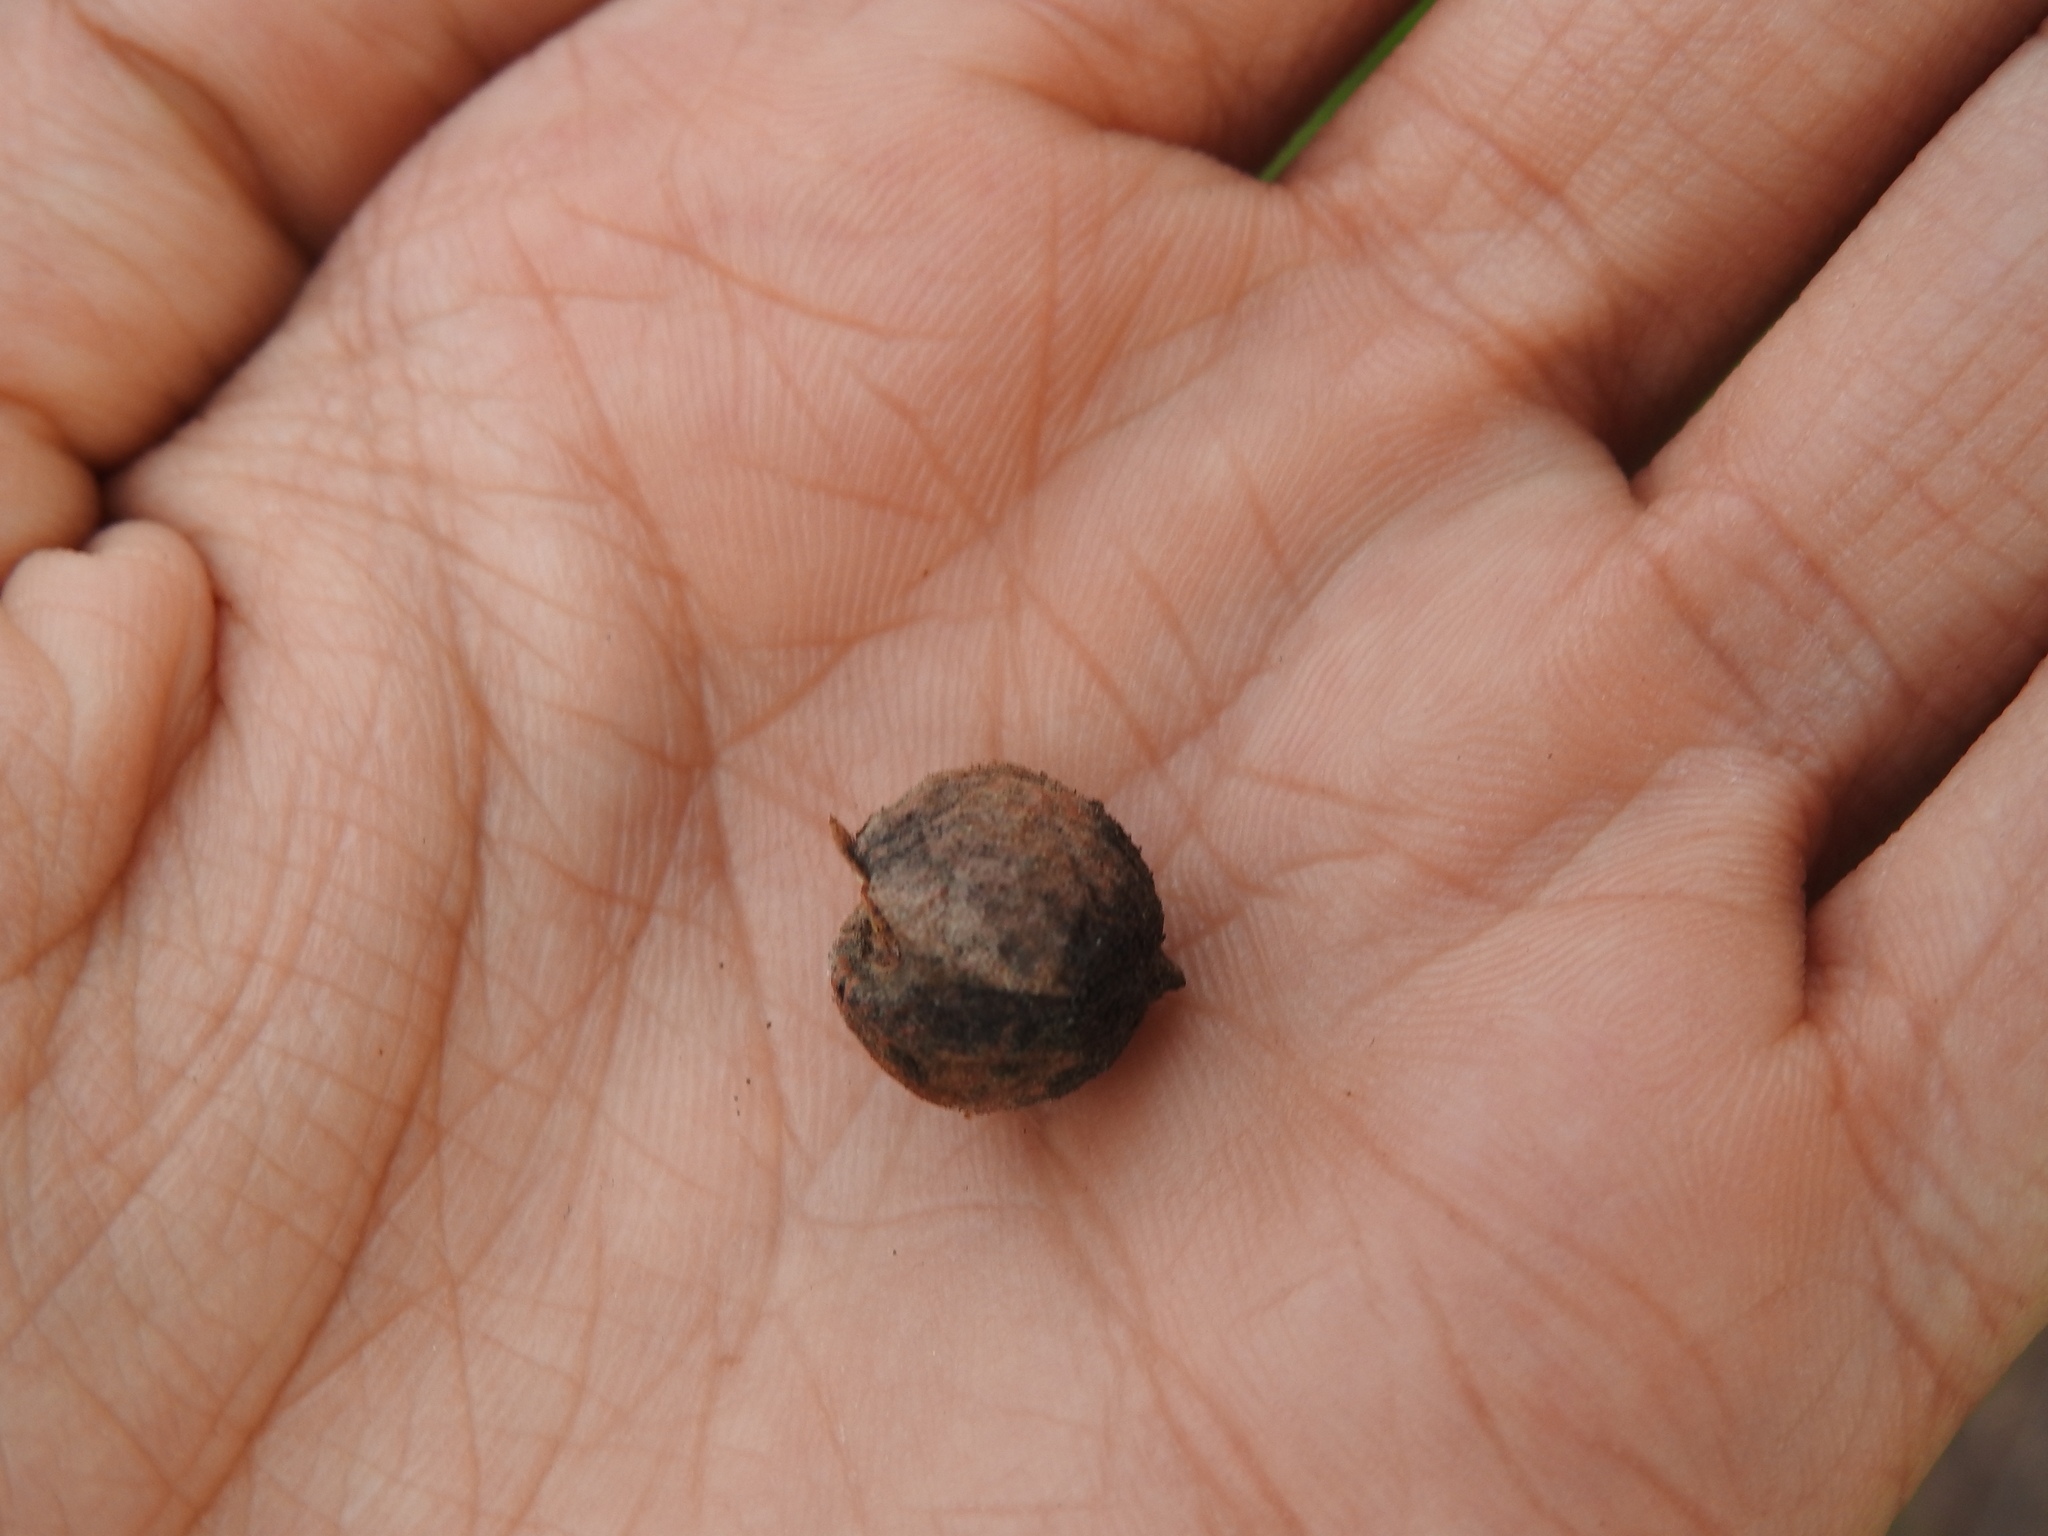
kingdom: Animalia
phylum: Arthropoda
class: Insecta
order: Hymenoptera
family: Cynipidae
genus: Disholcaspis
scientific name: Disholcaspis
